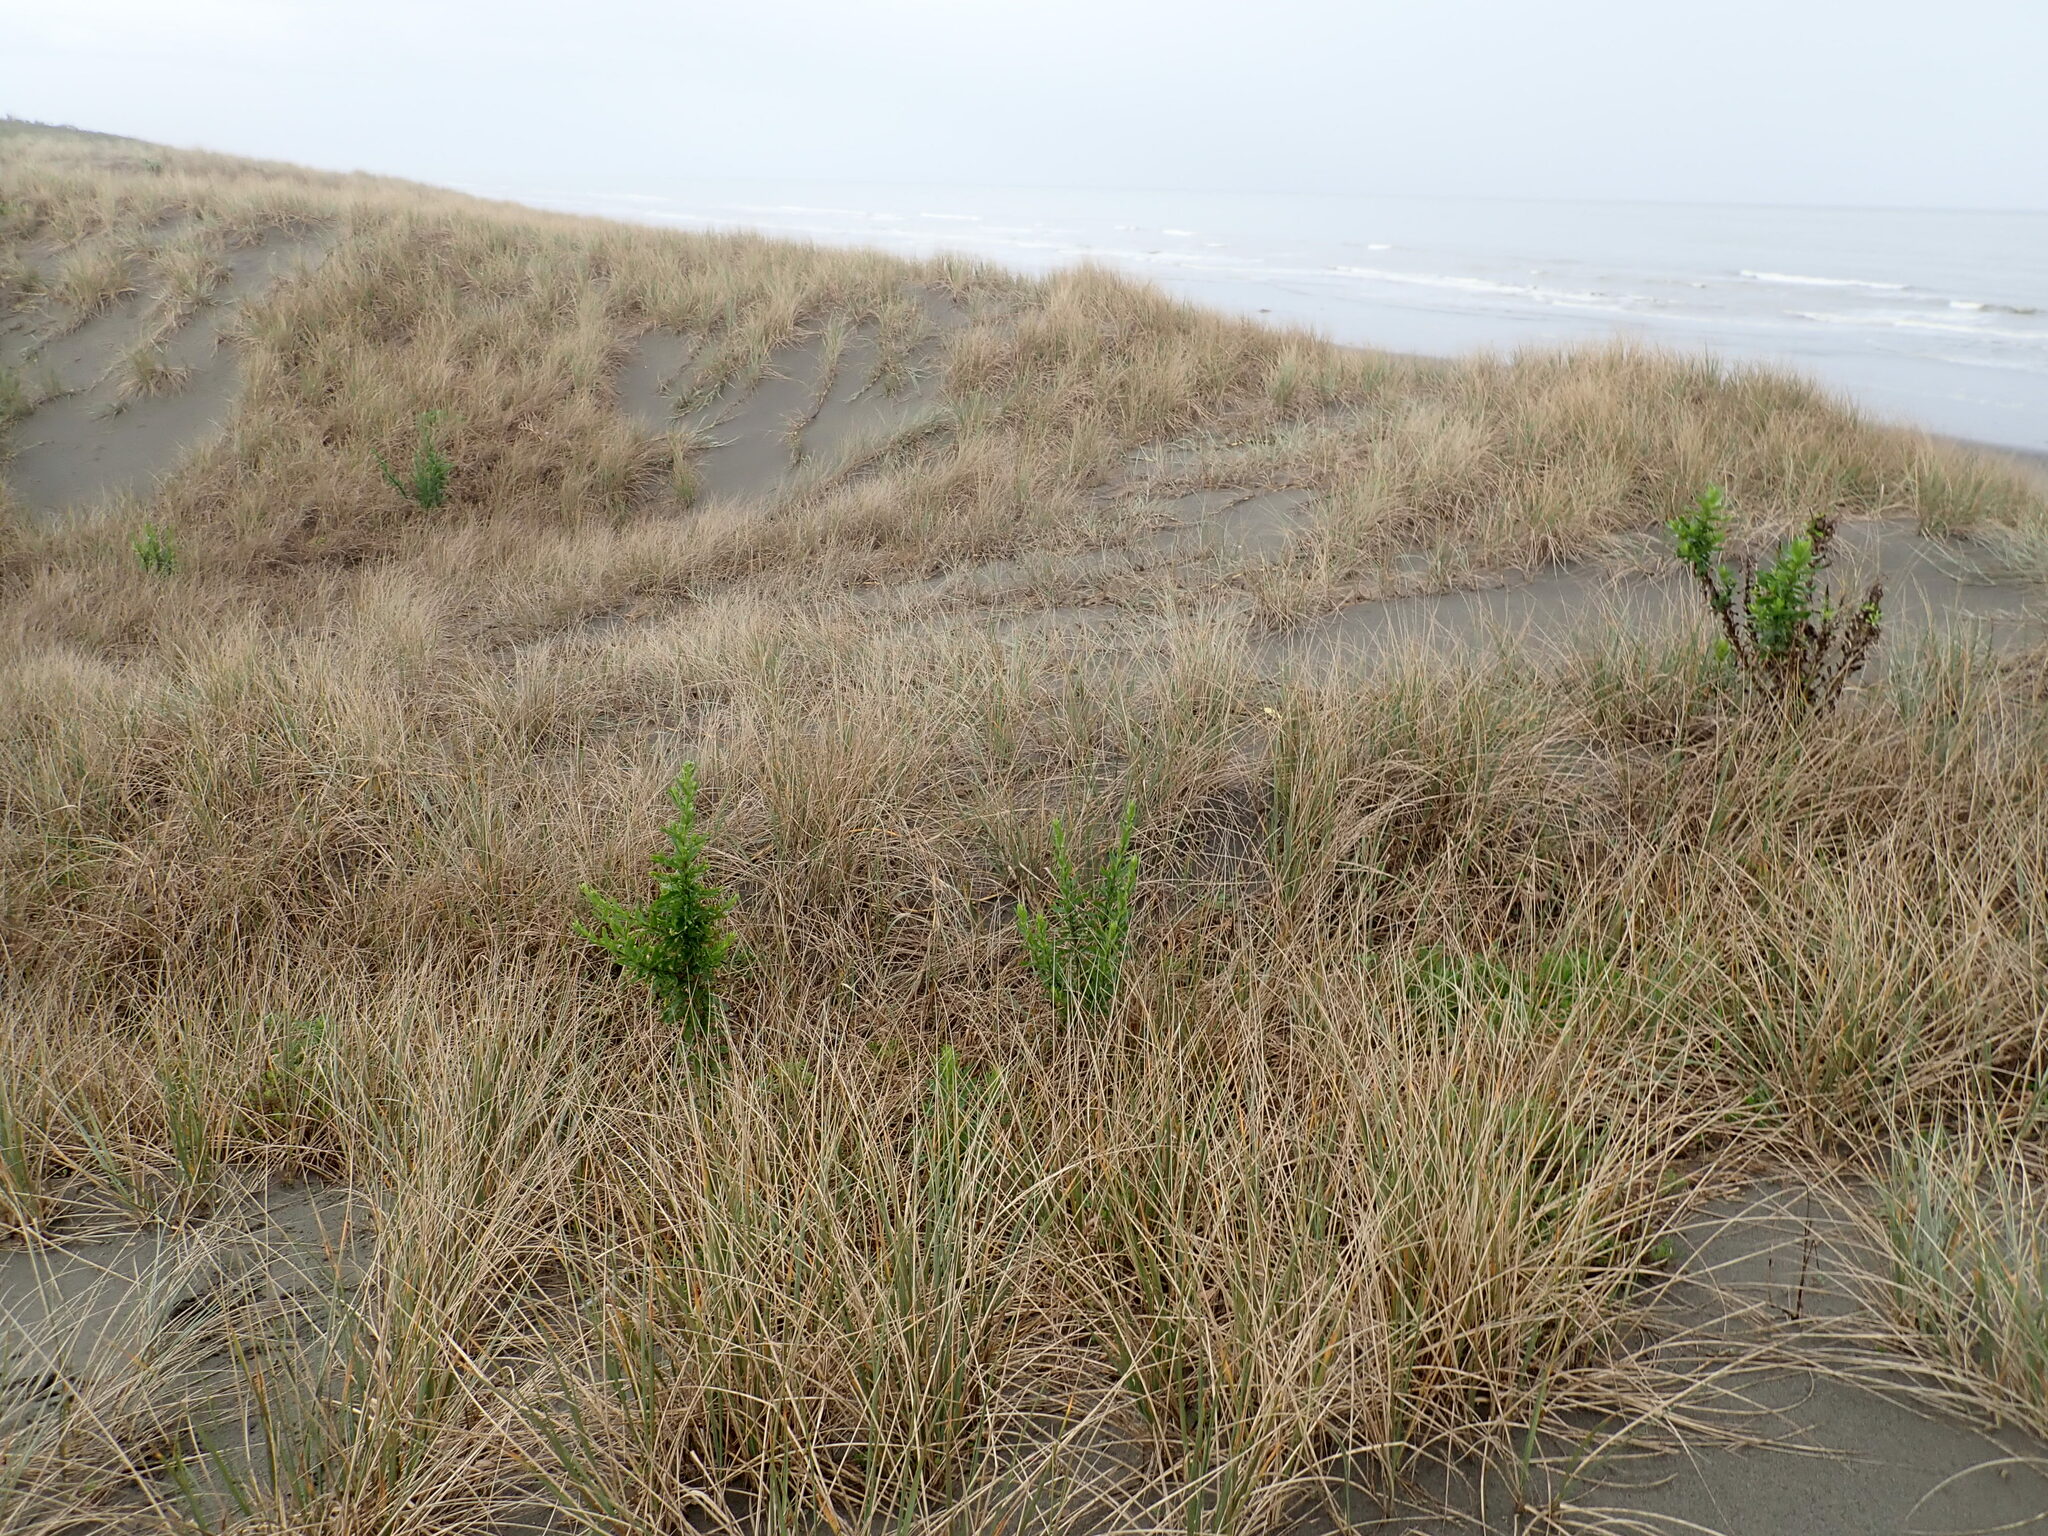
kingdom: Plantae
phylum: Tracheophyta
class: Magnoliopsida
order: Asterales
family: Asteraceae
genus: Senecio
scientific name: Senecio glastifolius
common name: Woad-leaved ragwort
